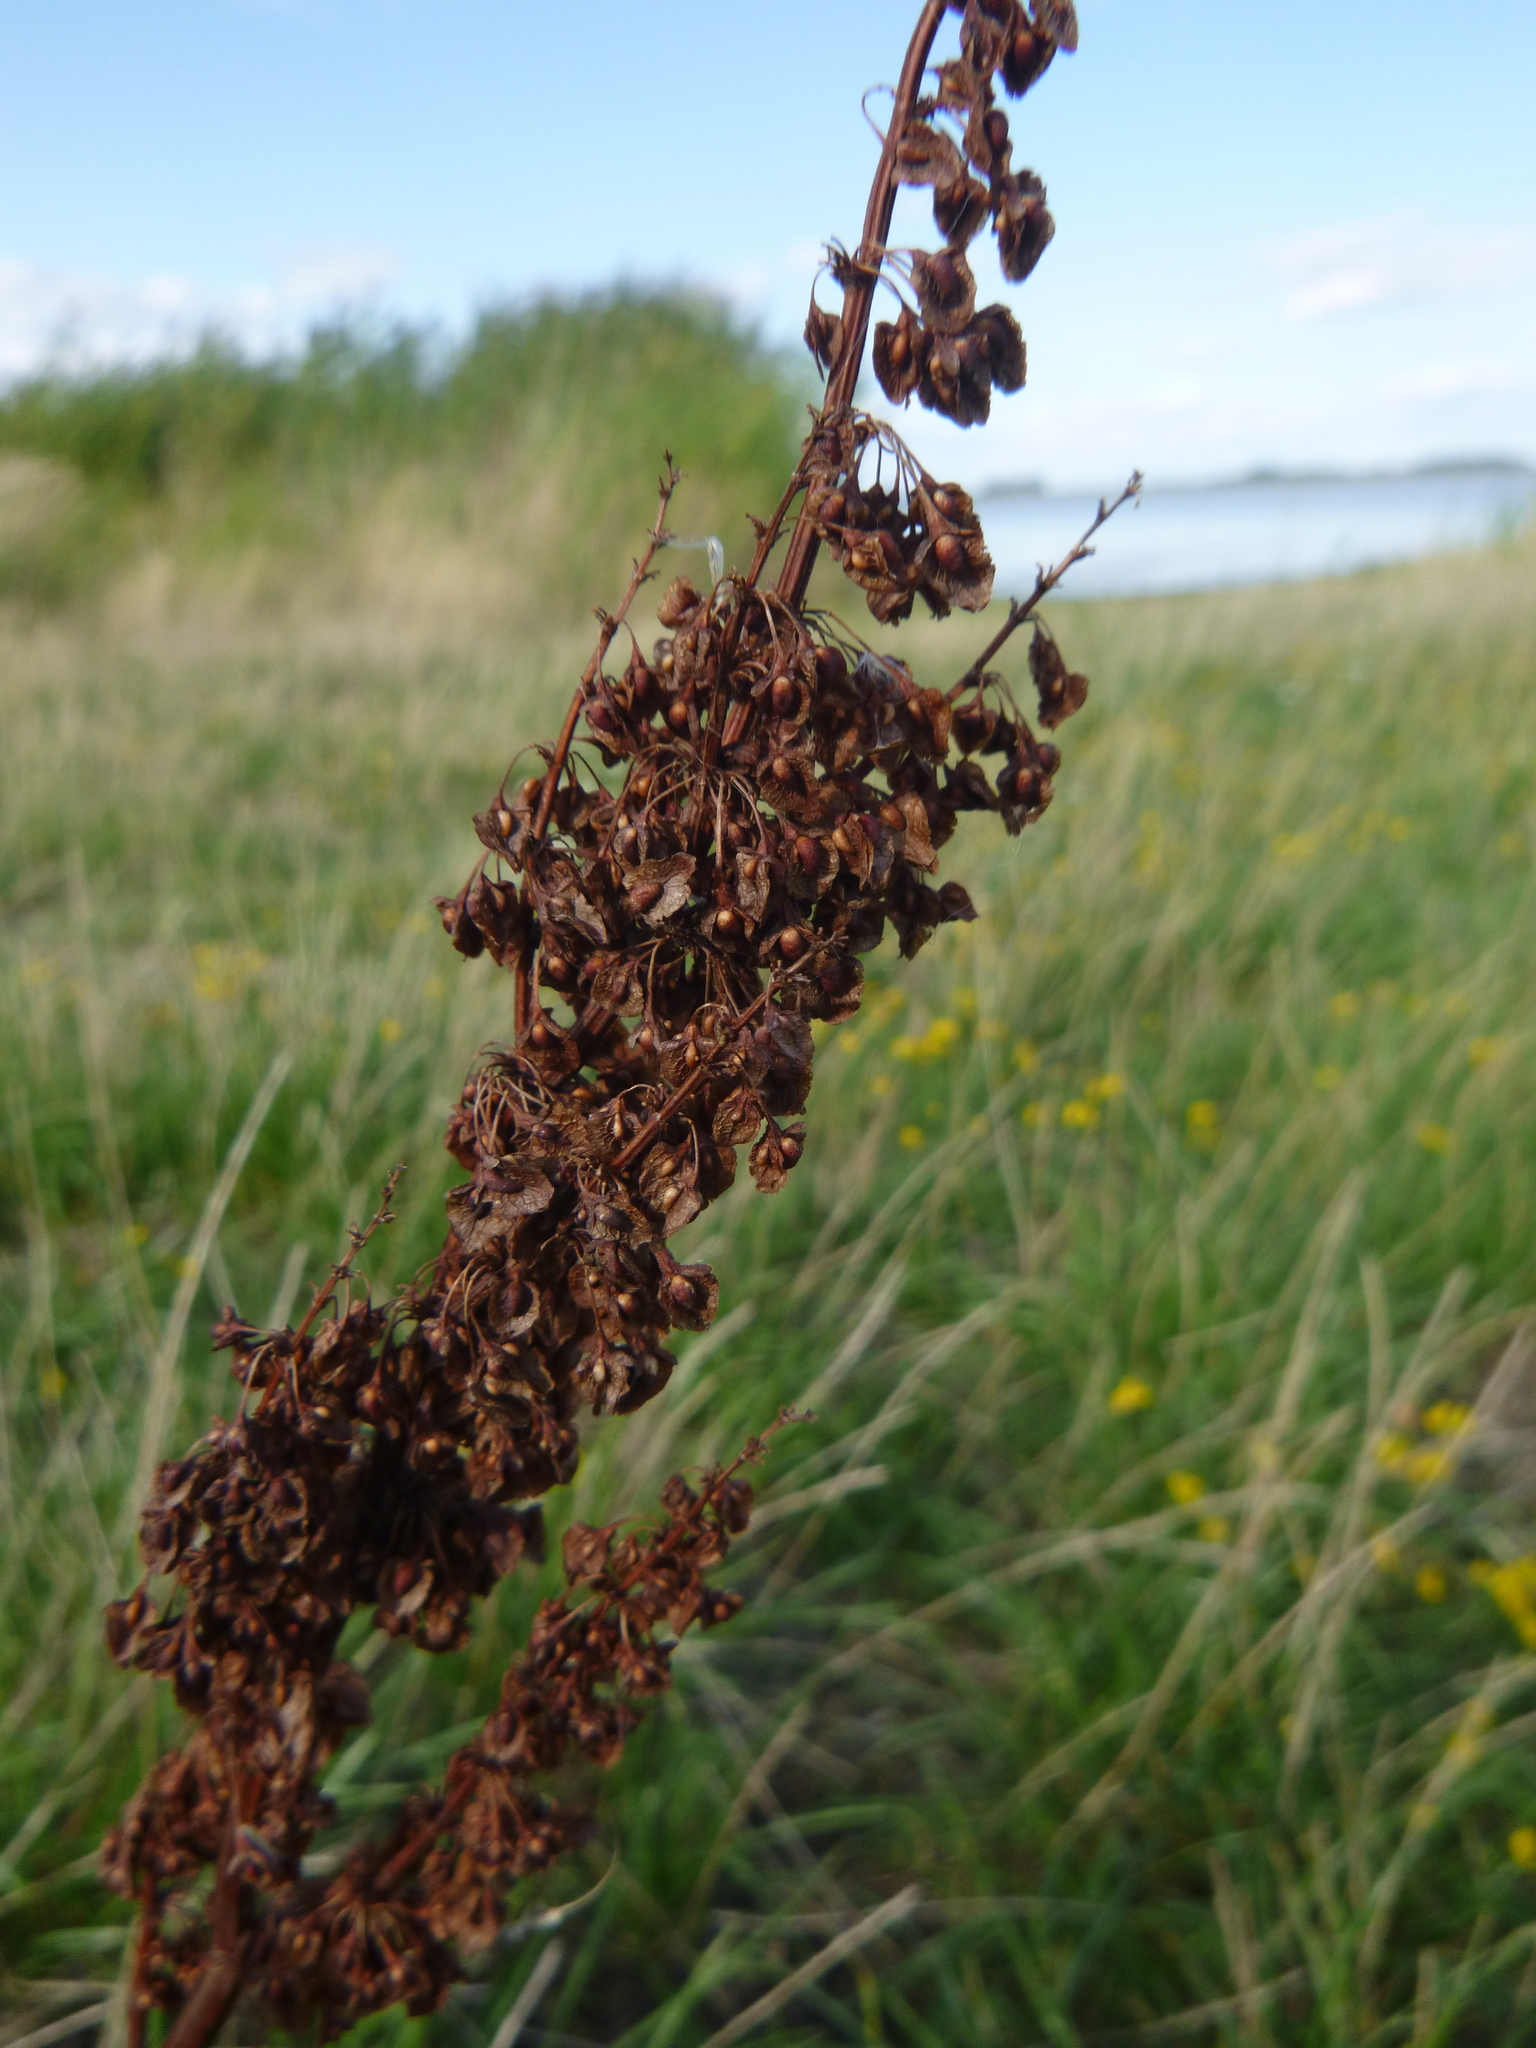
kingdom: Plantae
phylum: Tracheophyta
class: Magnoliopsida
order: Caryophyllales
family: Polygonaceae
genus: Rumex
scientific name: Rumex crispus
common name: Curled dock
